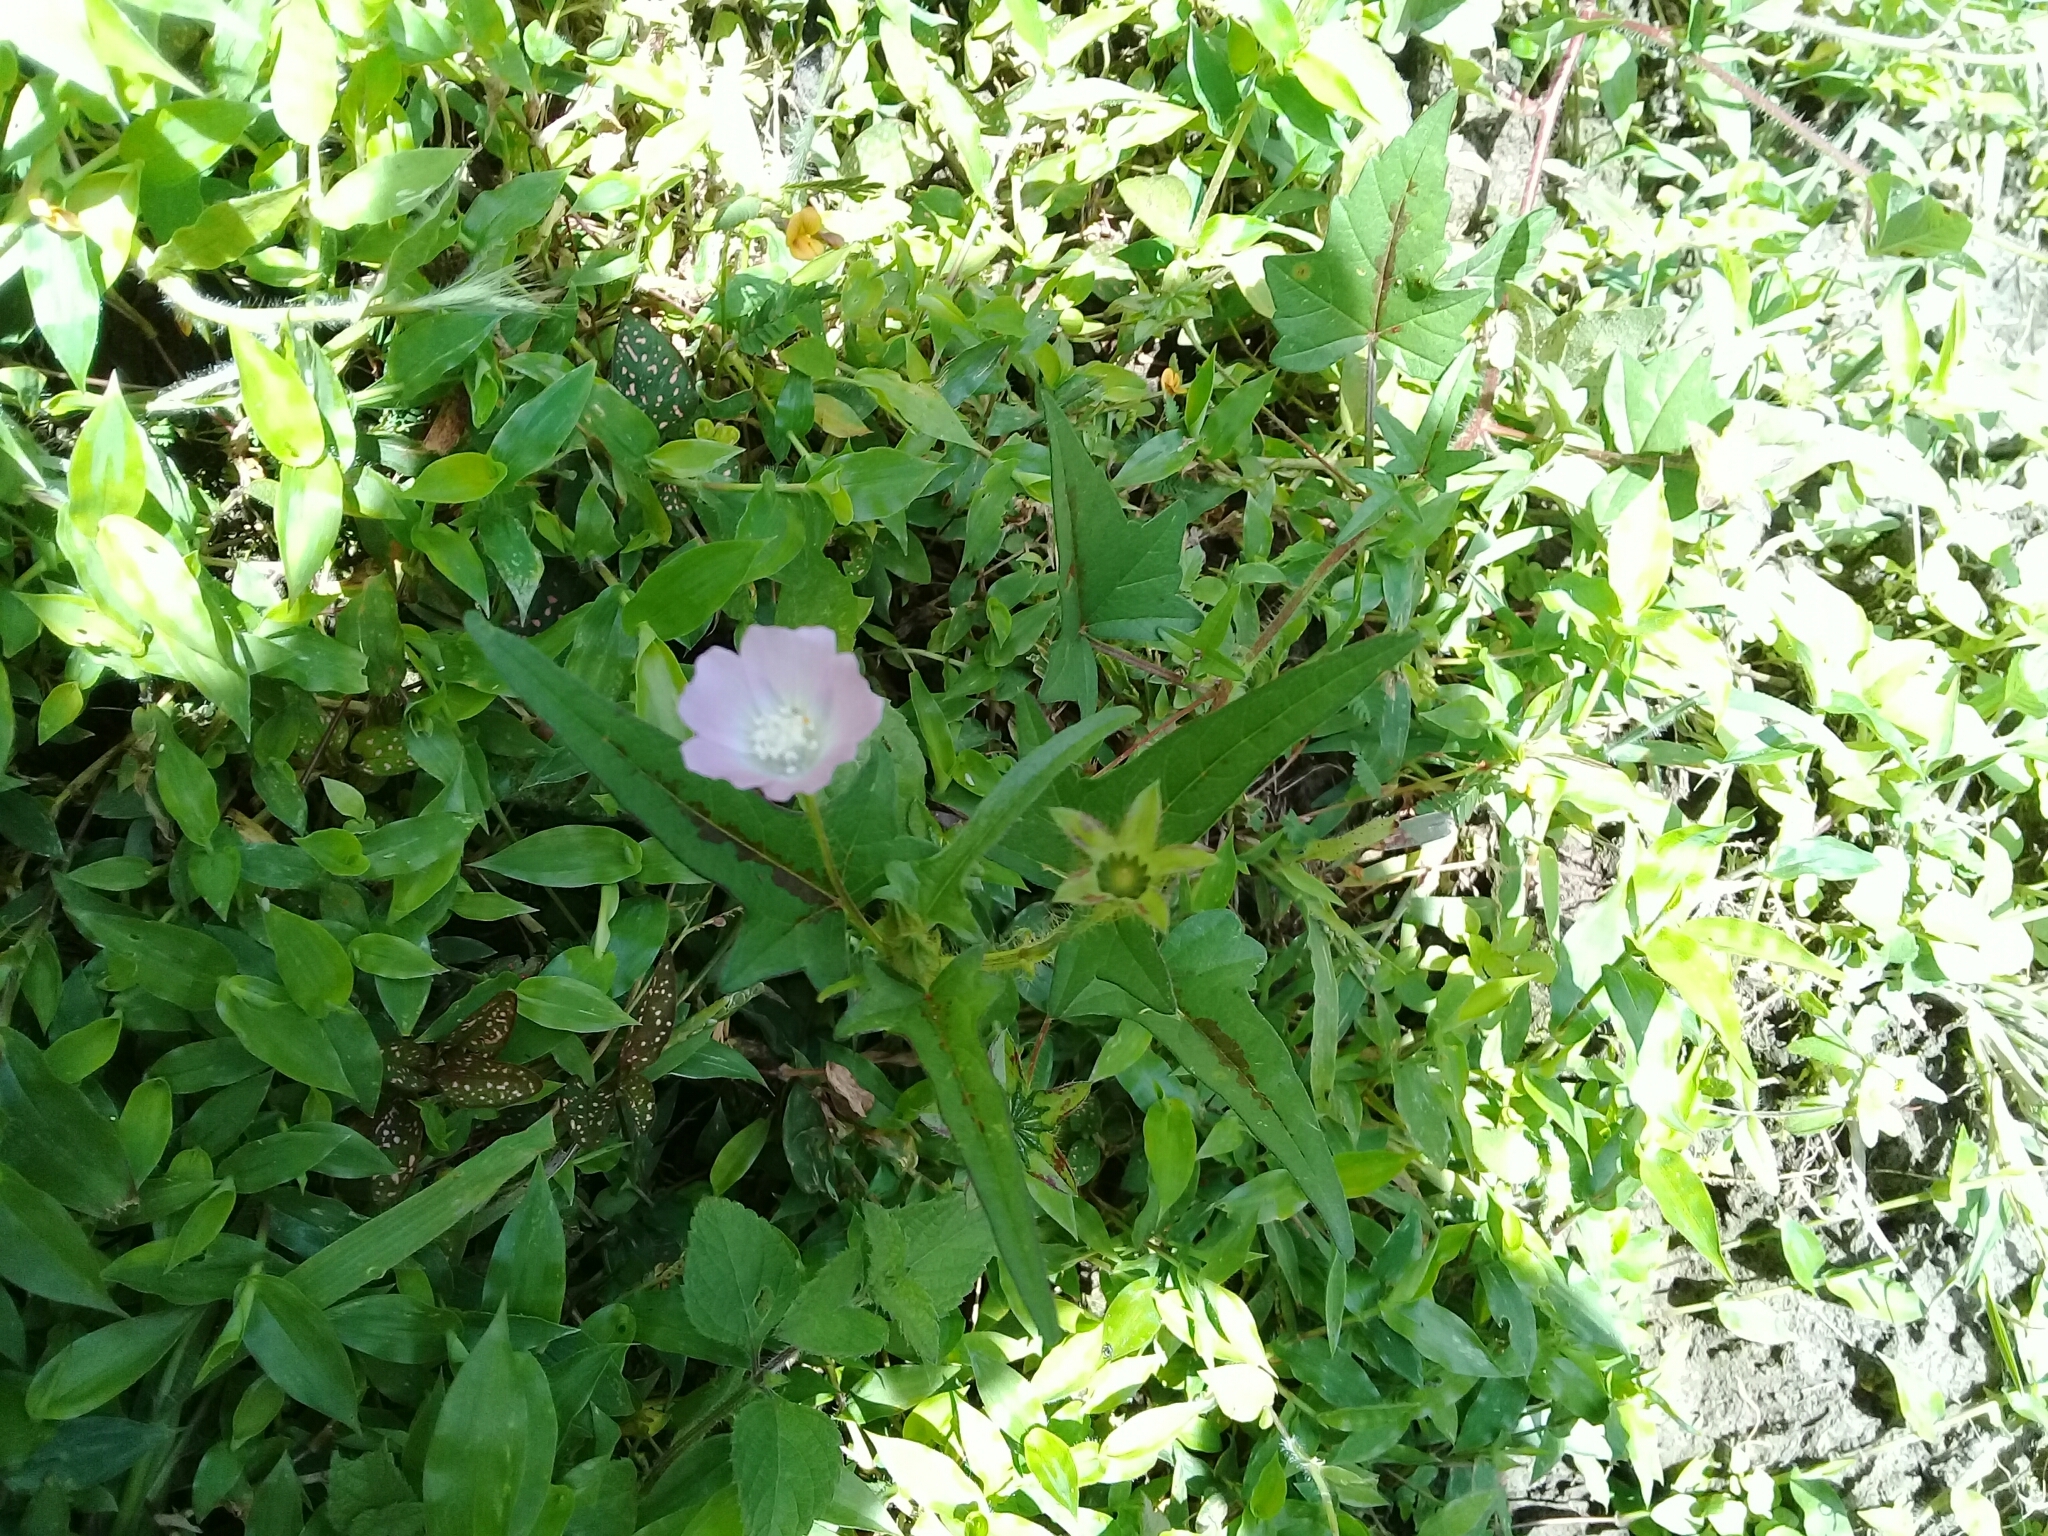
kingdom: Plantae
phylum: Tracheophyta
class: Magnoliopsida
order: Malvales
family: Malvaceae
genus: Anoda
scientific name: Anoda cristata
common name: Spurred anoda
